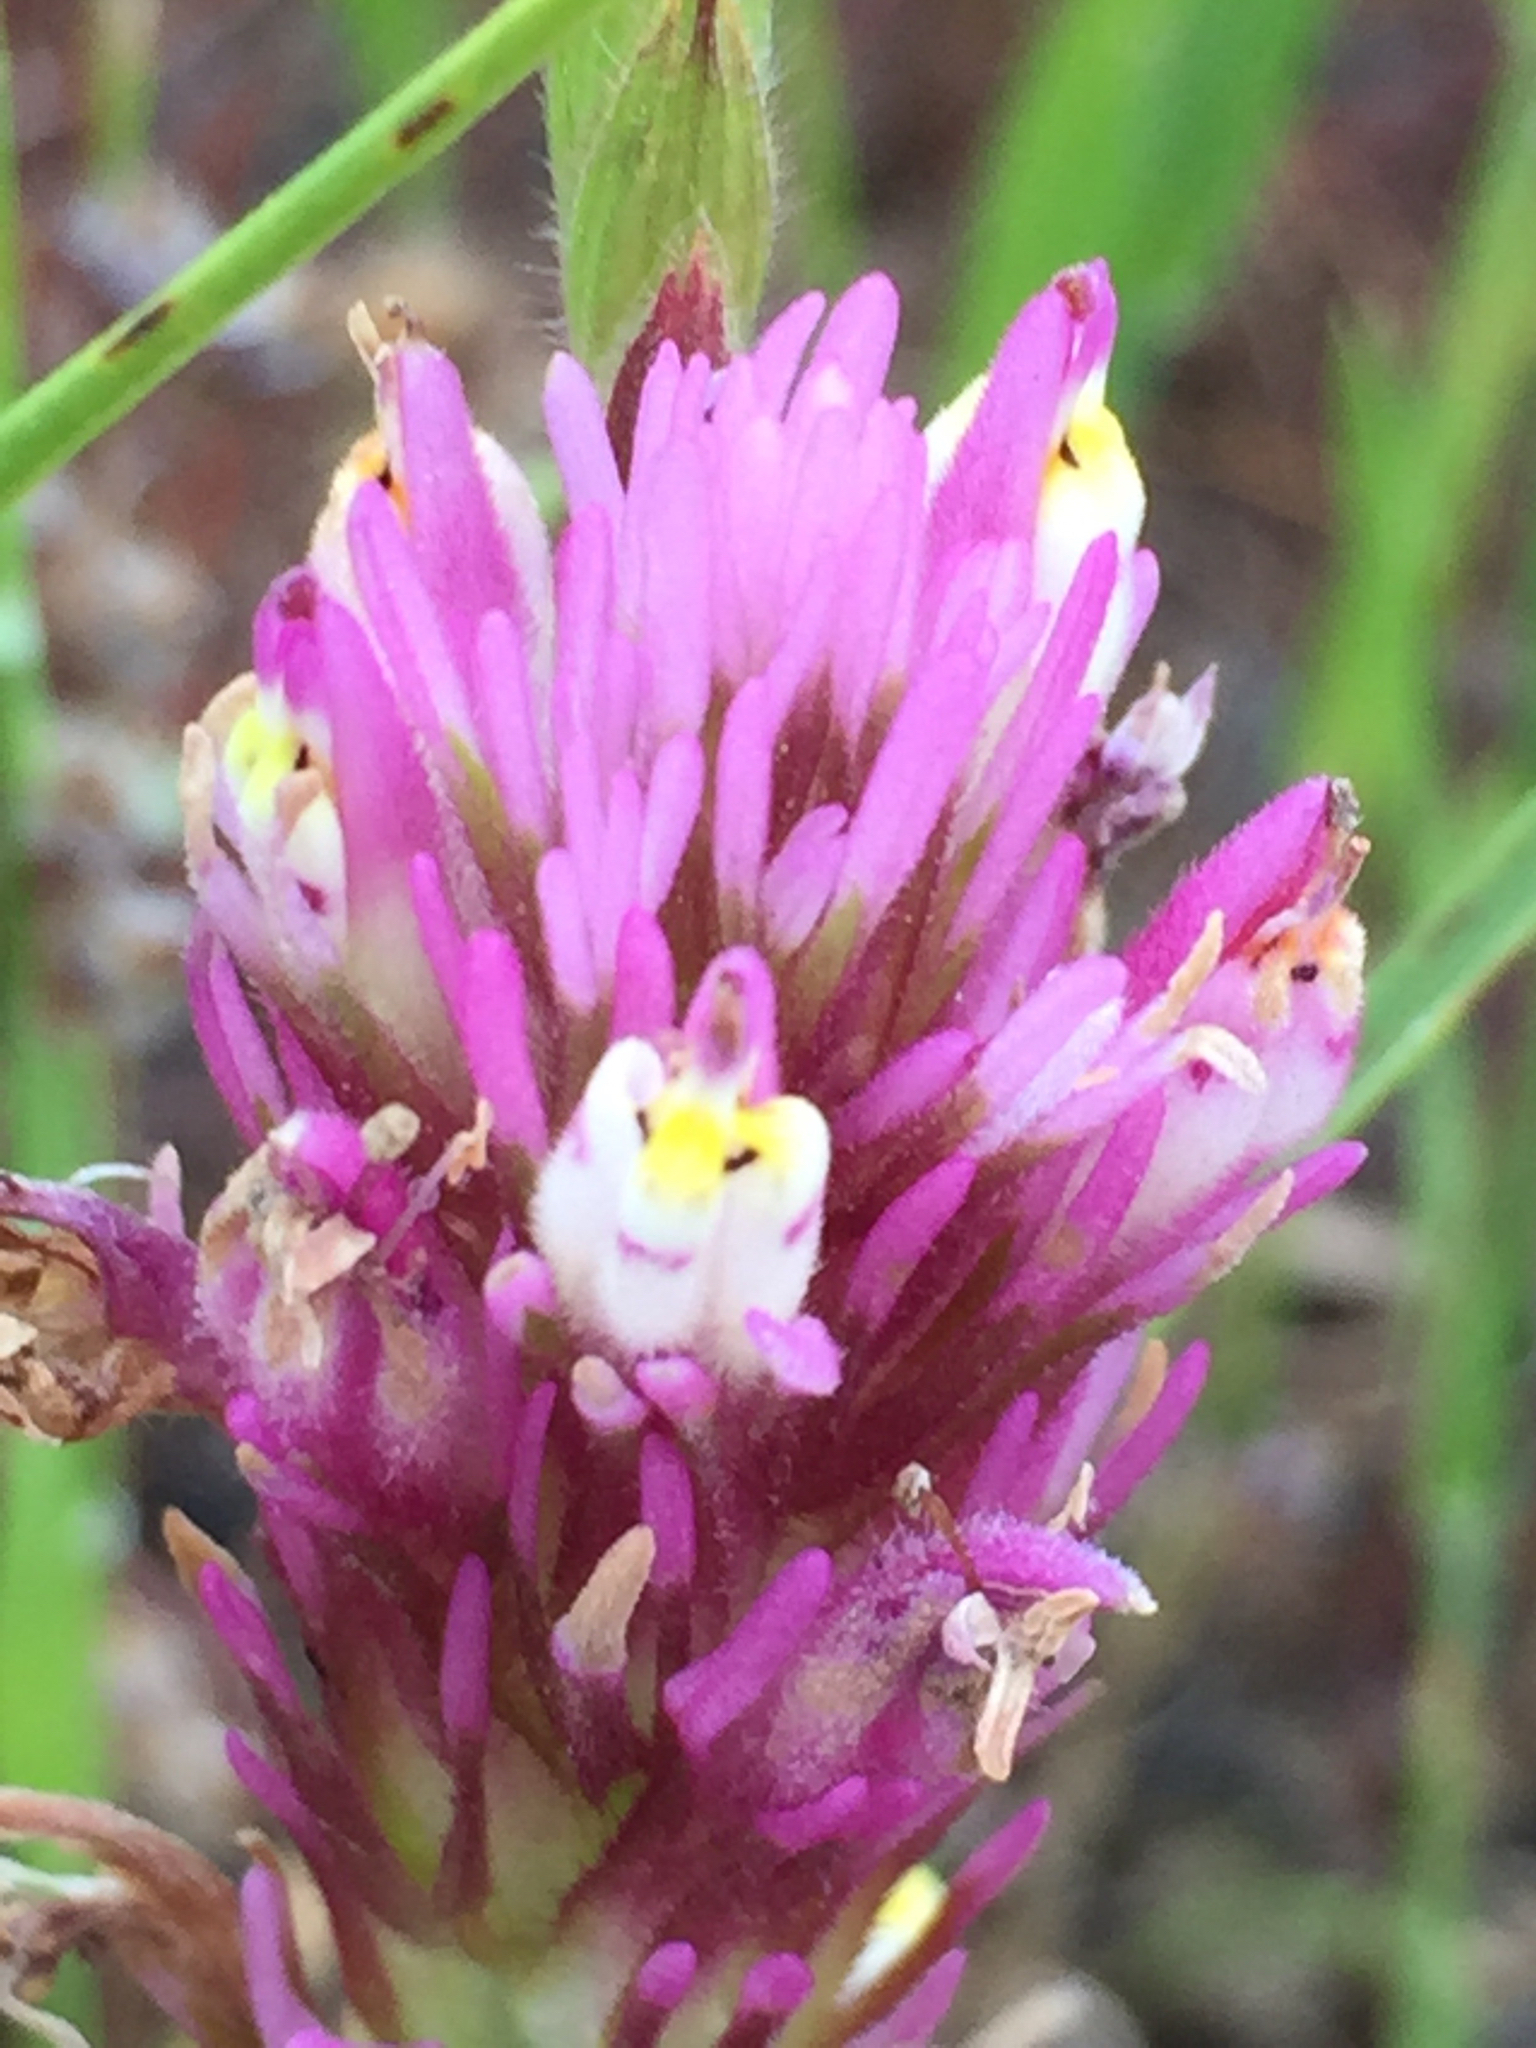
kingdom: Plantae
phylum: Tracheophyta
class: Magnoliopsida
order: Lamiales
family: Orobanchaceae
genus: Castilleja
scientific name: Castilleja densiflora
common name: Dense-flower indian paintbrush
